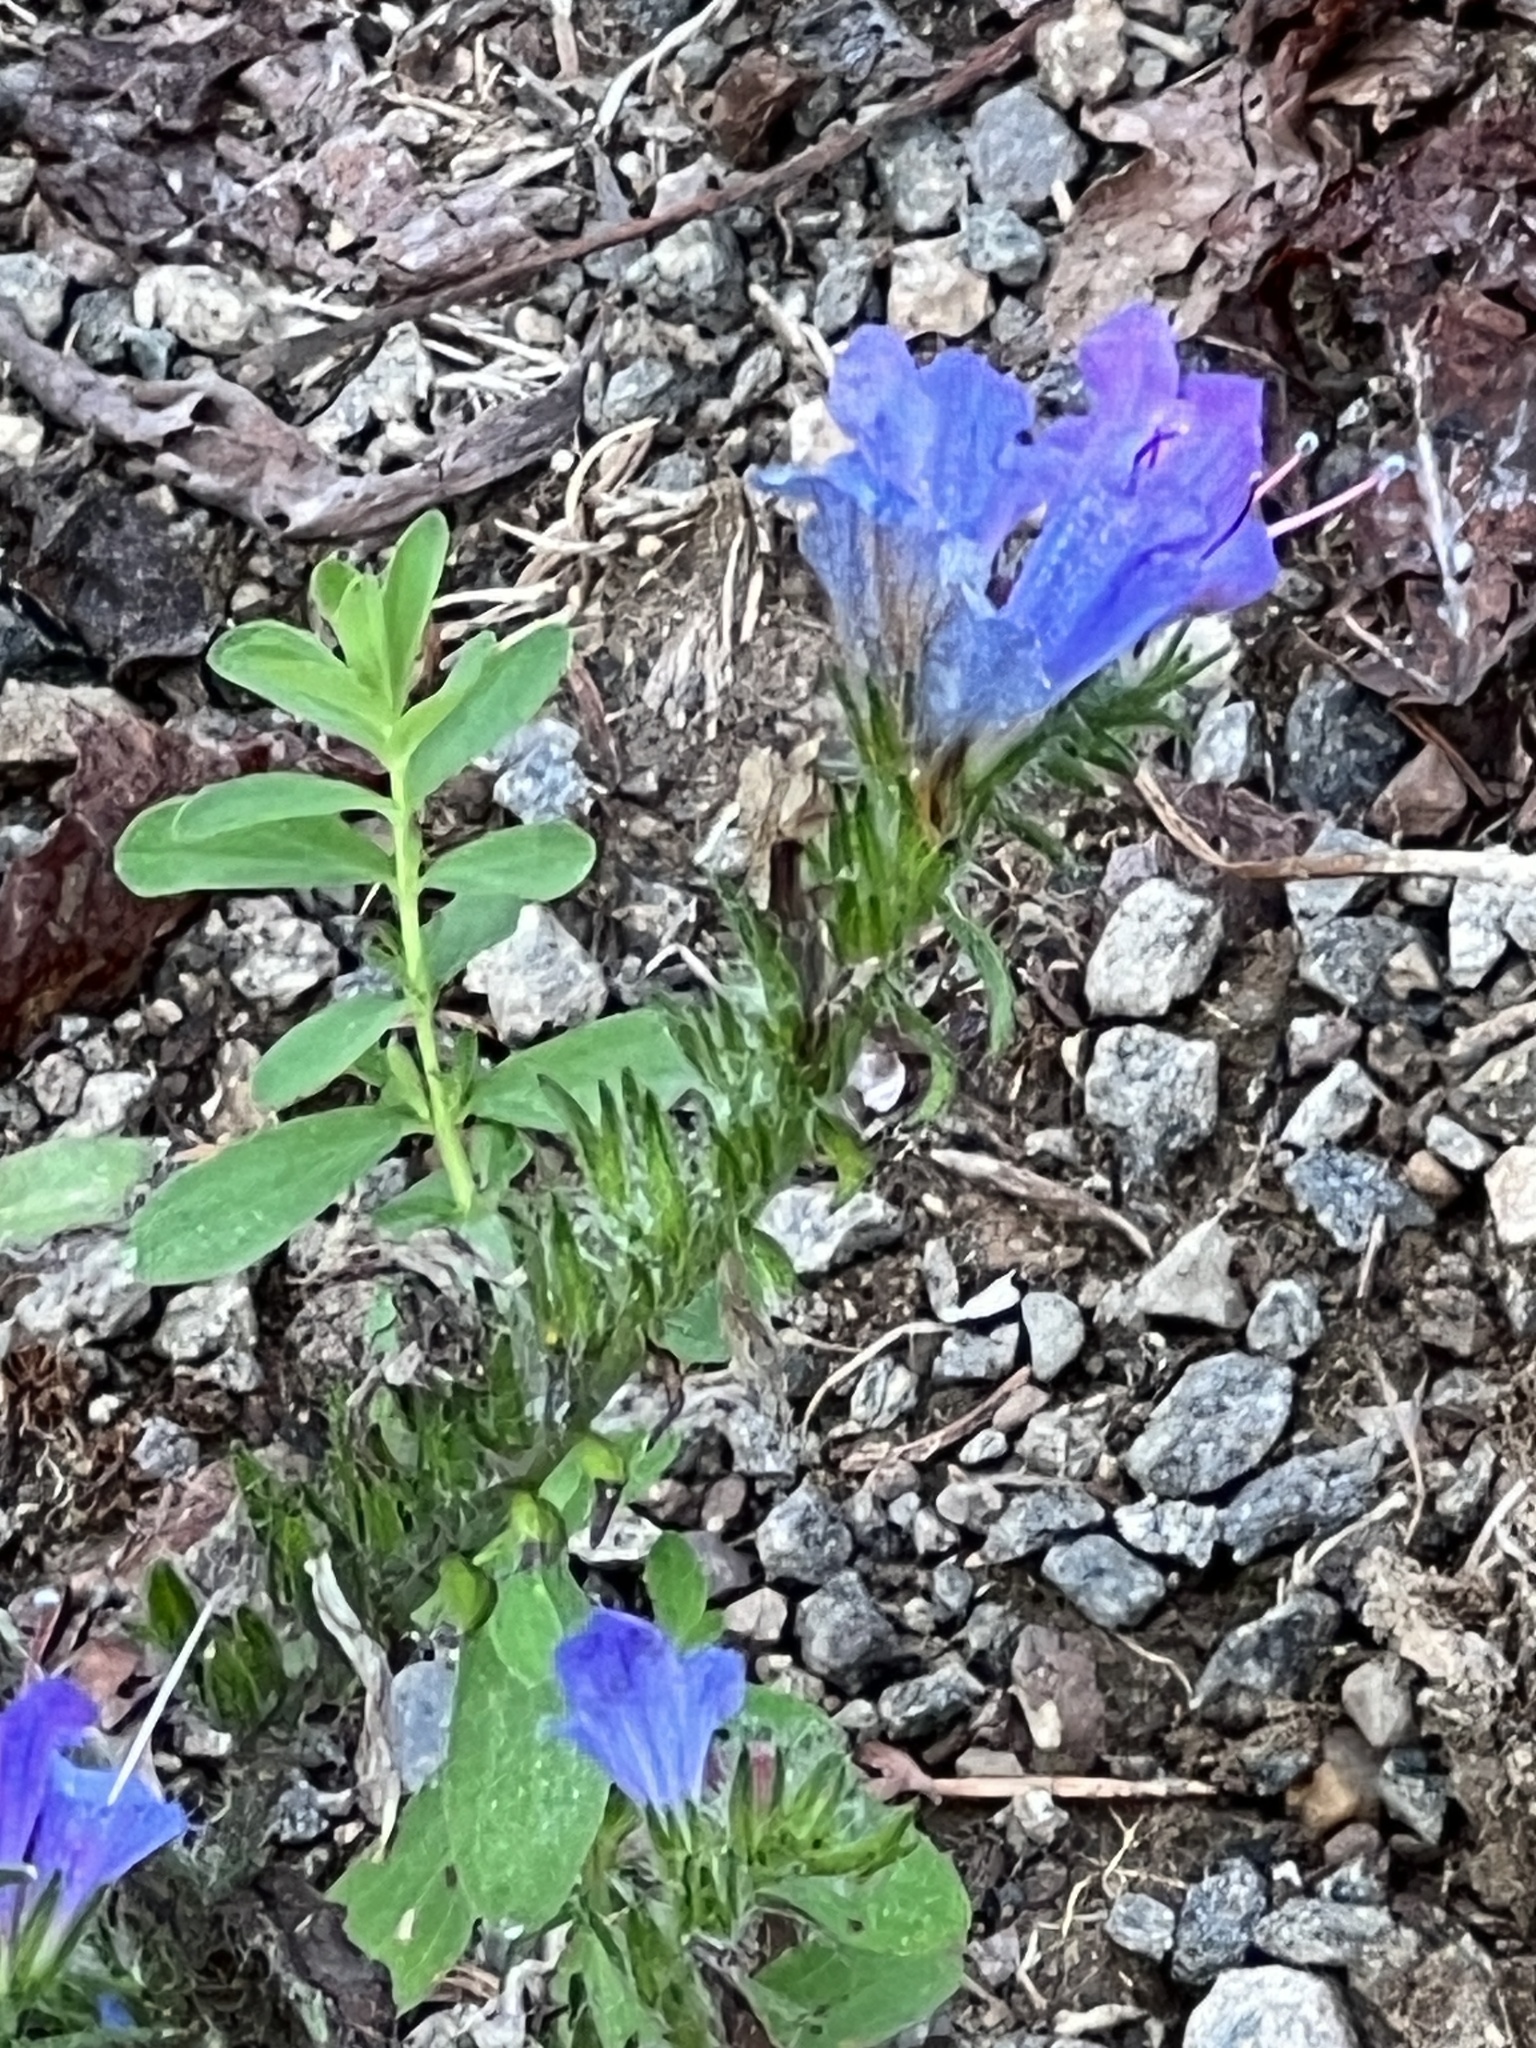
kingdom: Plantae
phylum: Tracheophyta
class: Magnoliopsida
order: Boraginales
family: Boraginaceae
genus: Echium
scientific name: Echium vulgare
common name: Common viper's bugloss
